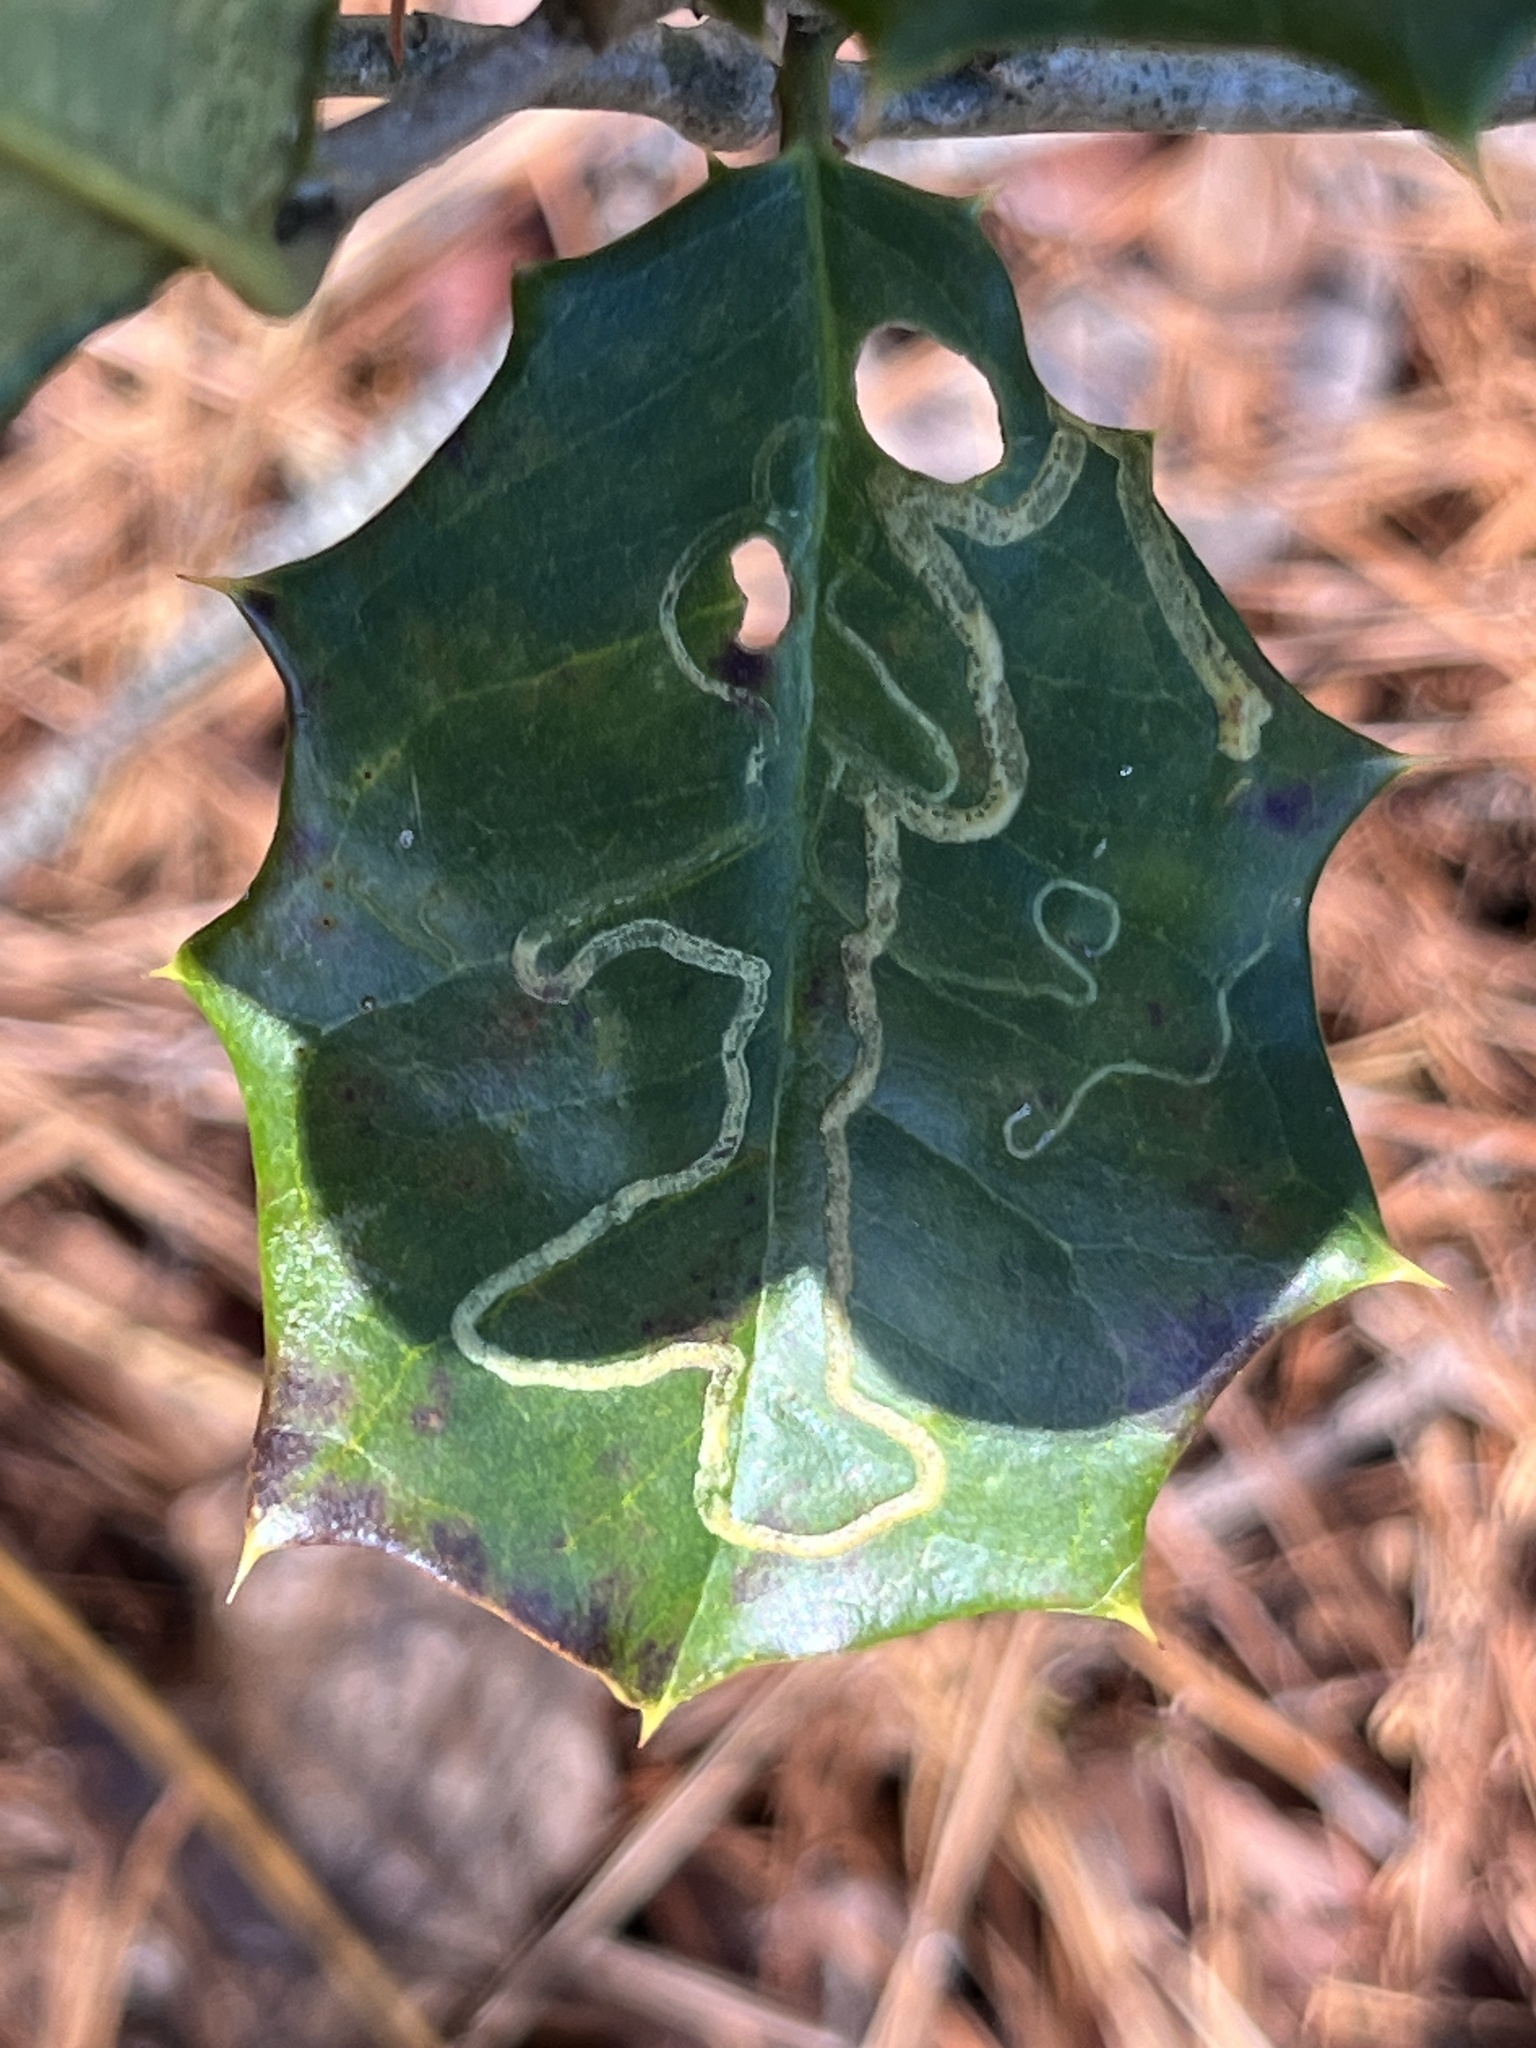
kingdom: Animalia
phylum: Arthropoda
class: Insecta
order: Diptera
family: Agromyzidae
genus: Phytomyza
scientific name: Phytomyza opacae
